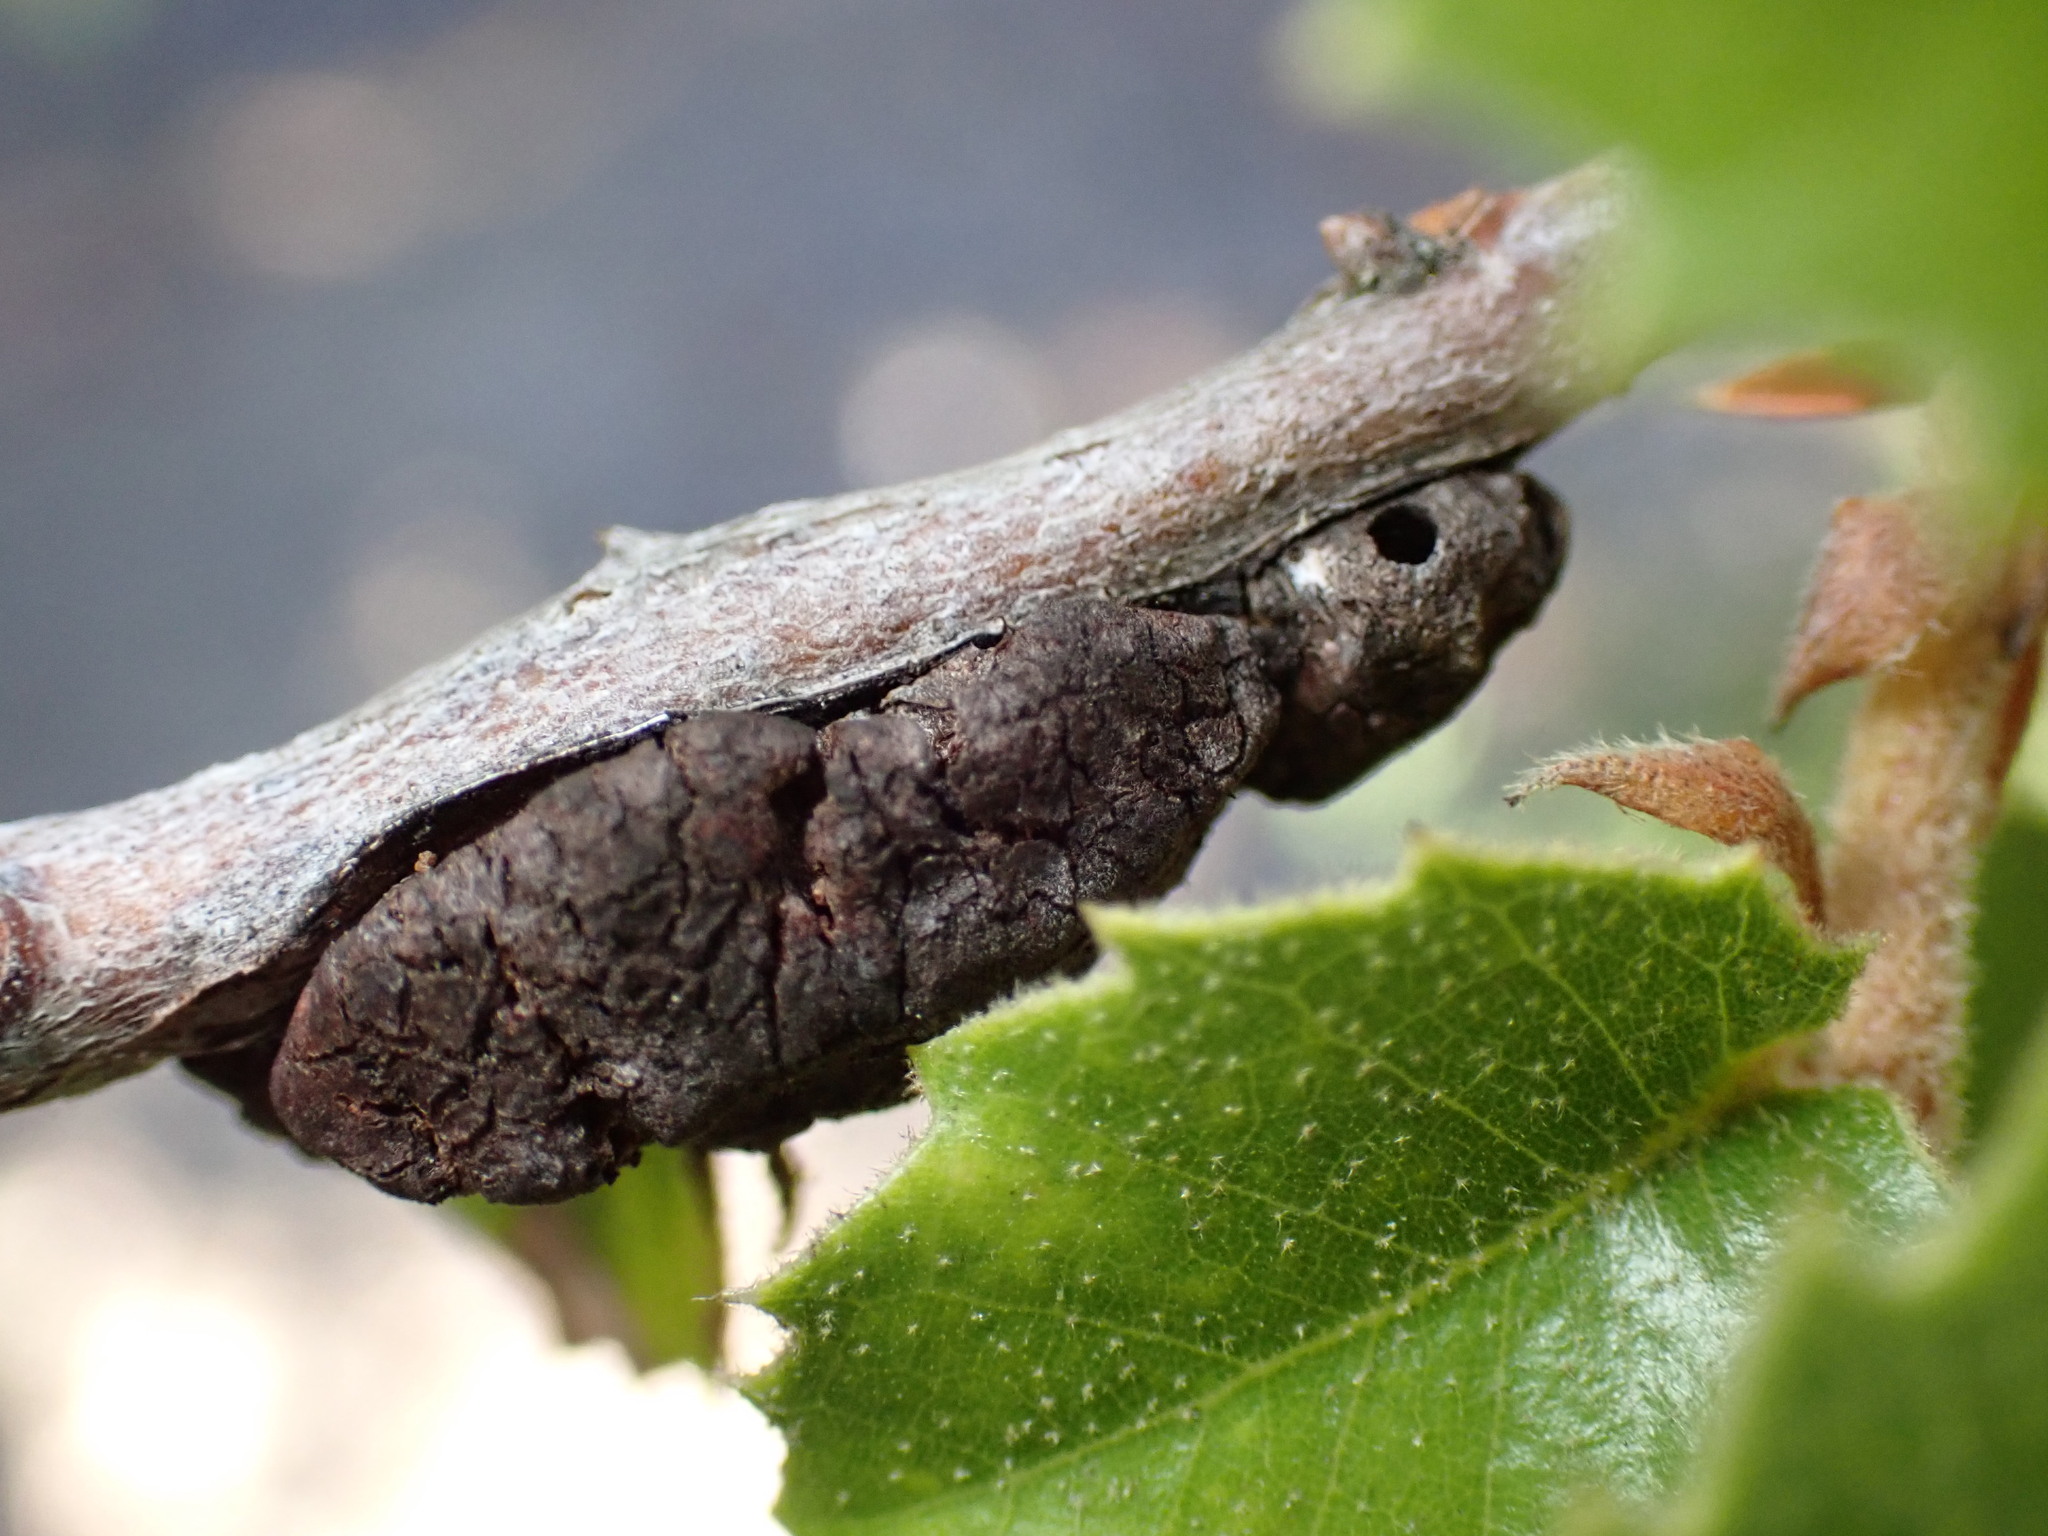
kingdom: Animalia
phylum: Arthropoda
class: Insecta
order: Hymenoptera
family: Cynipidae
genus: Disholandricus
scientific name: Disholandricus
